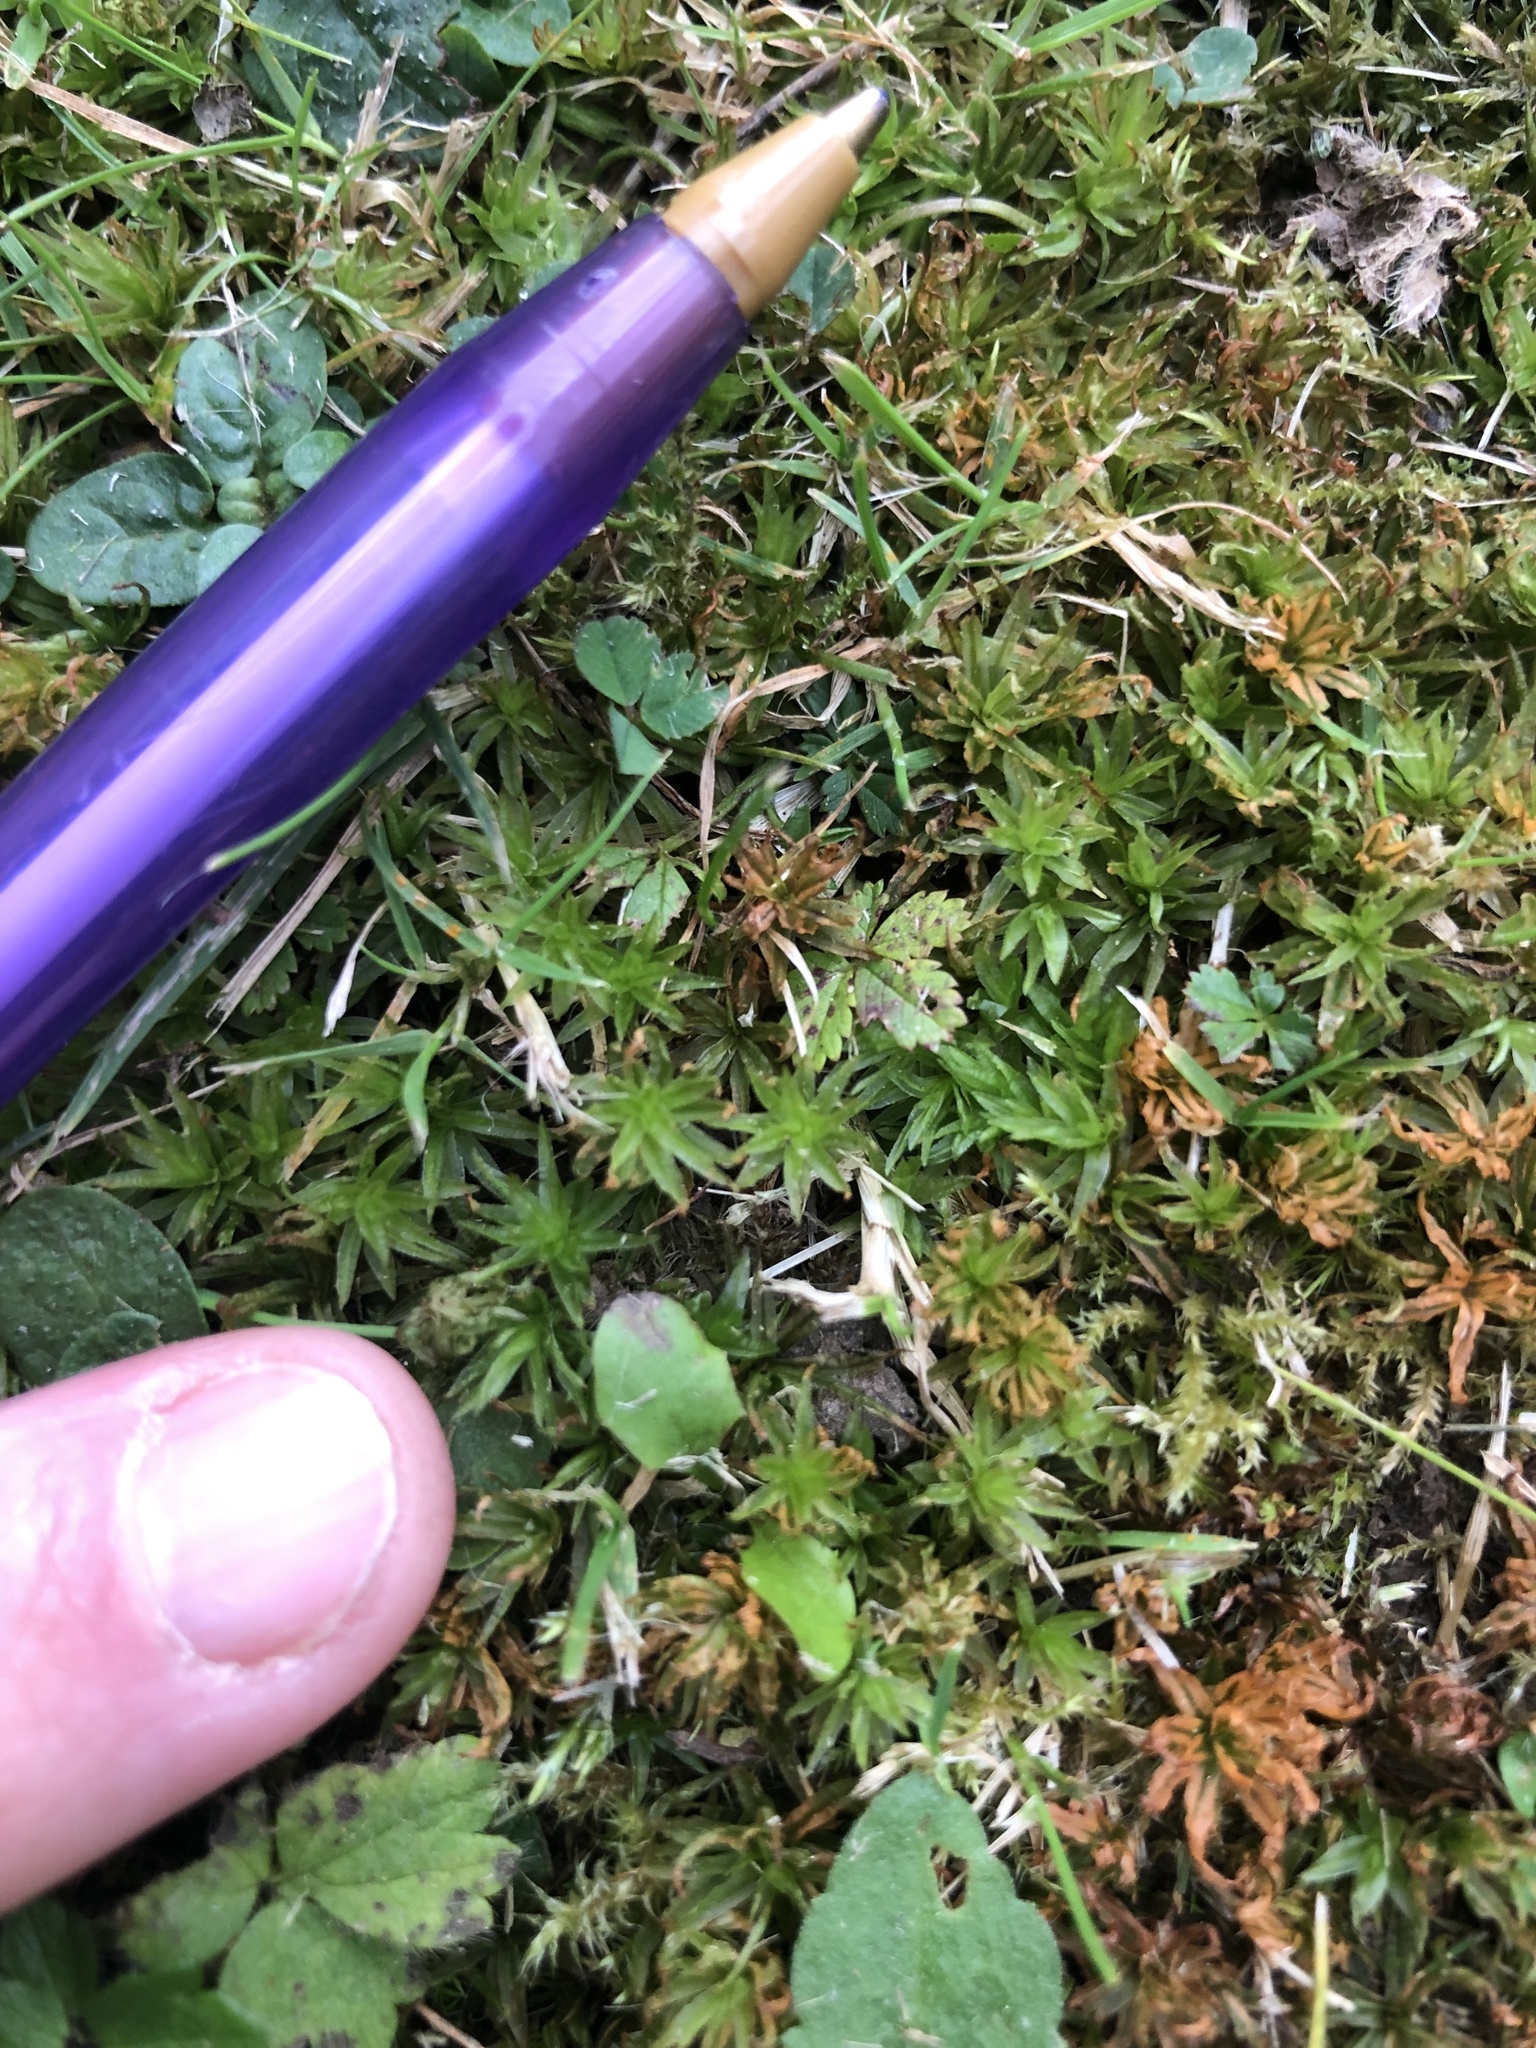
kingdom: Plantae
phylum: Bryophyta
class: Polytrichopsida
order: Polytrichales
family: Polytrichaceae
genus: Atrichum
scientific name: Atrichum undulatum
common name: Common smoothcap
